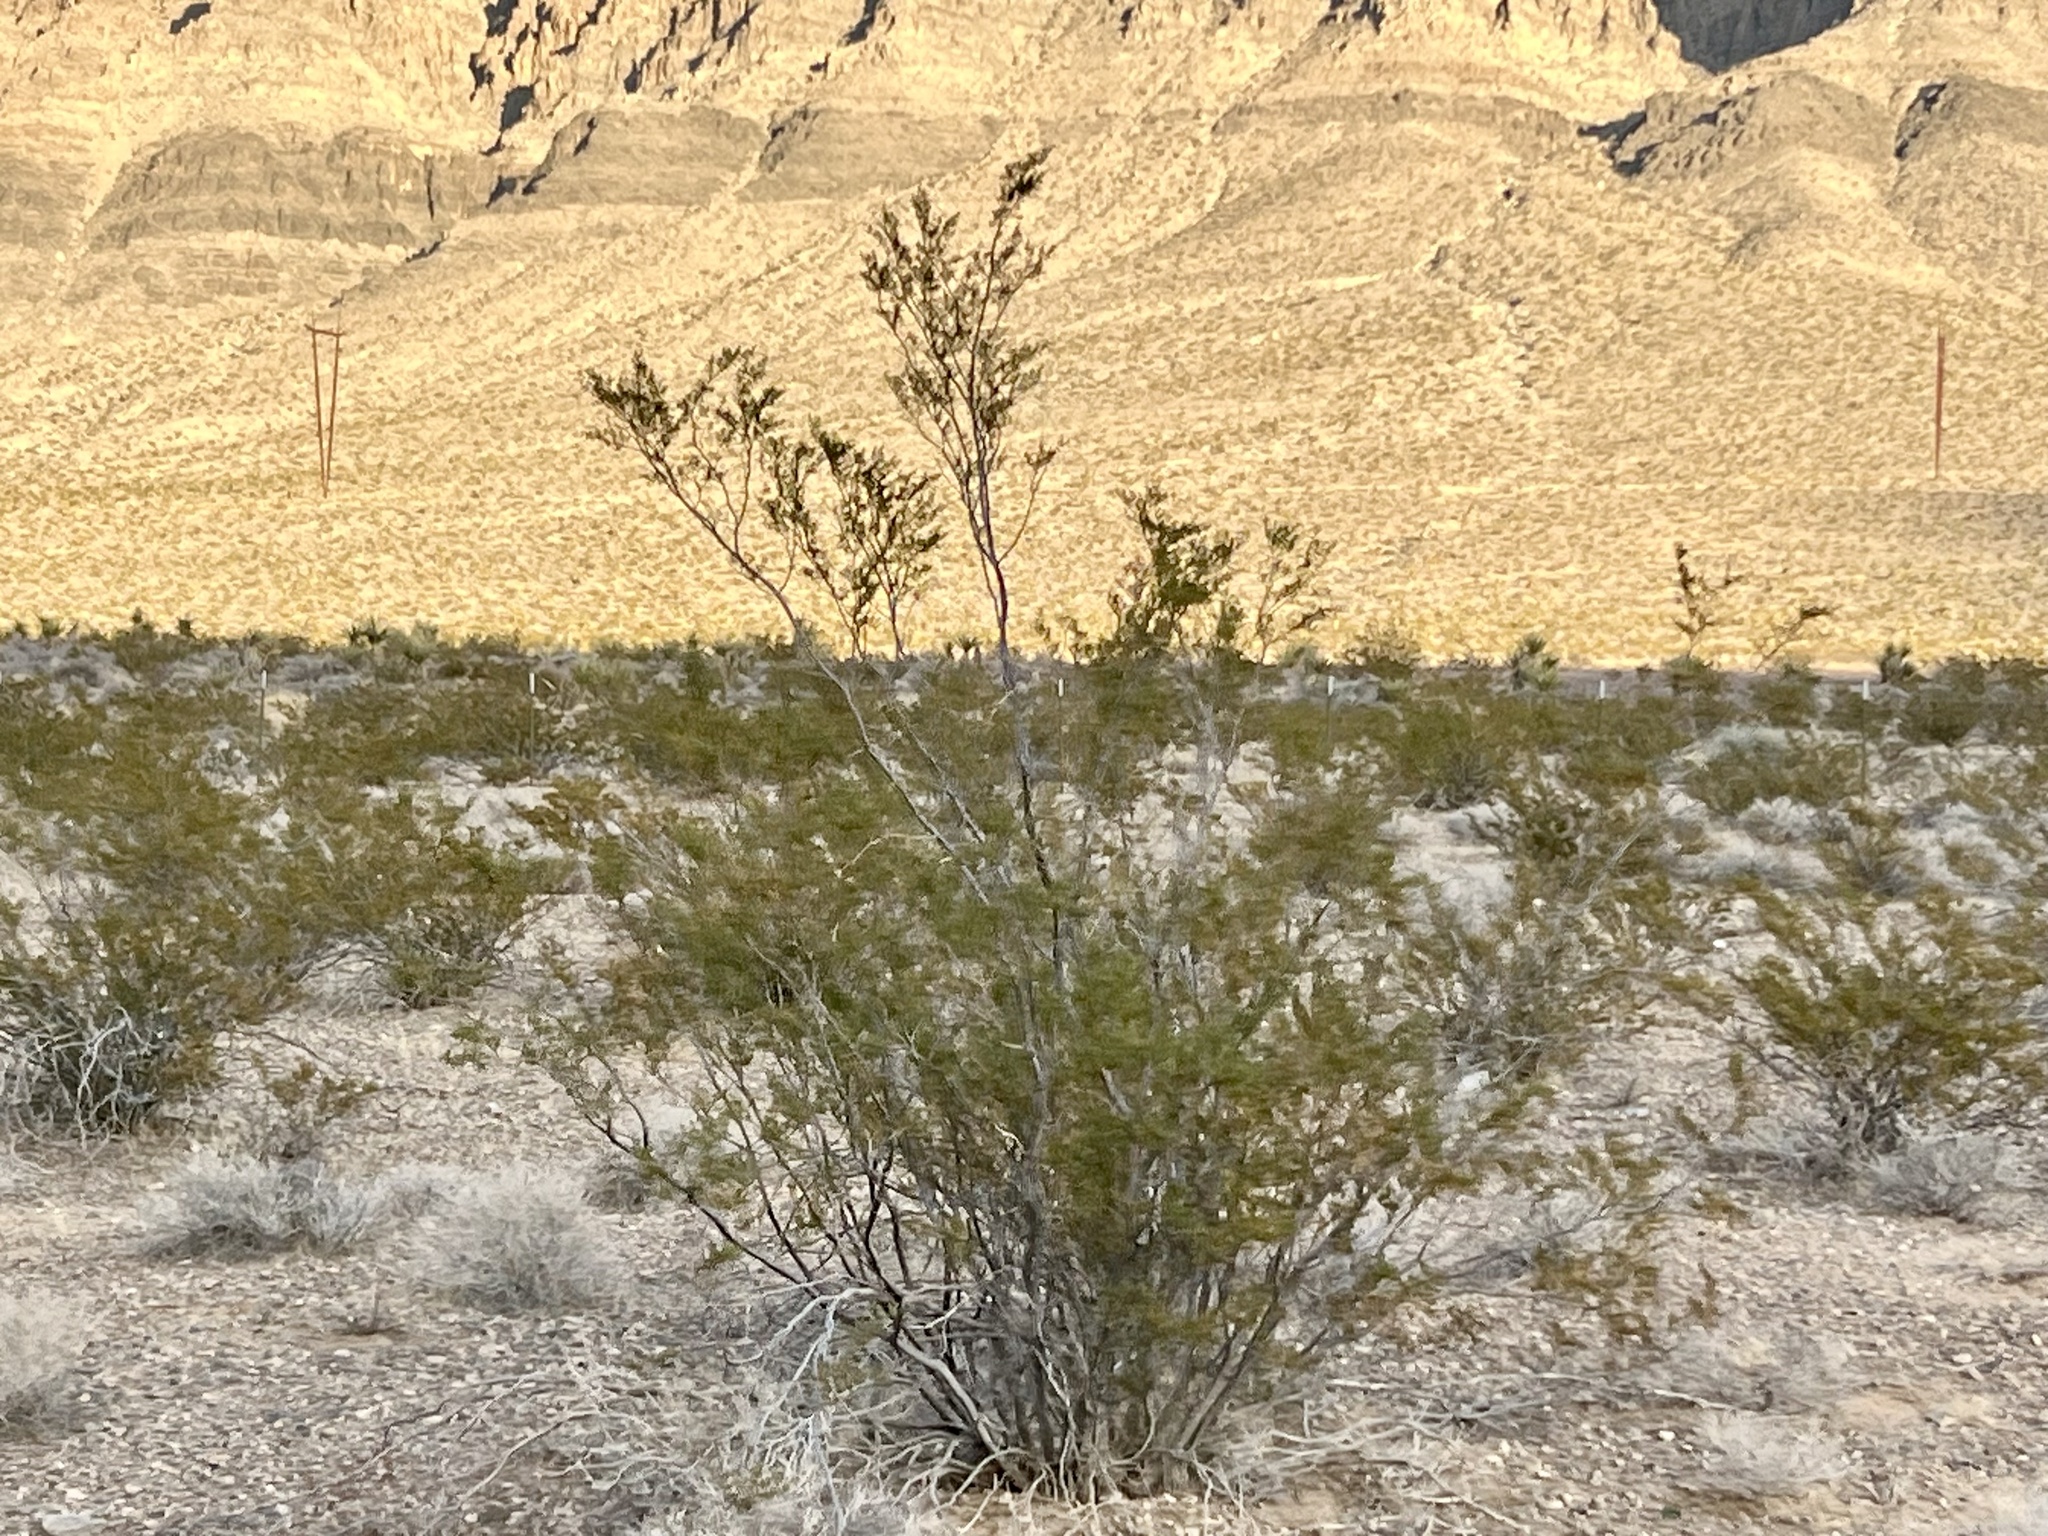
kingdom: Plantae
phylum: Tracheophyta
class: Magnoliopsida
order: Zygophyllales
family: Zygophyllaceae
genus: Larrea
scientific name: Larrea tridentata
